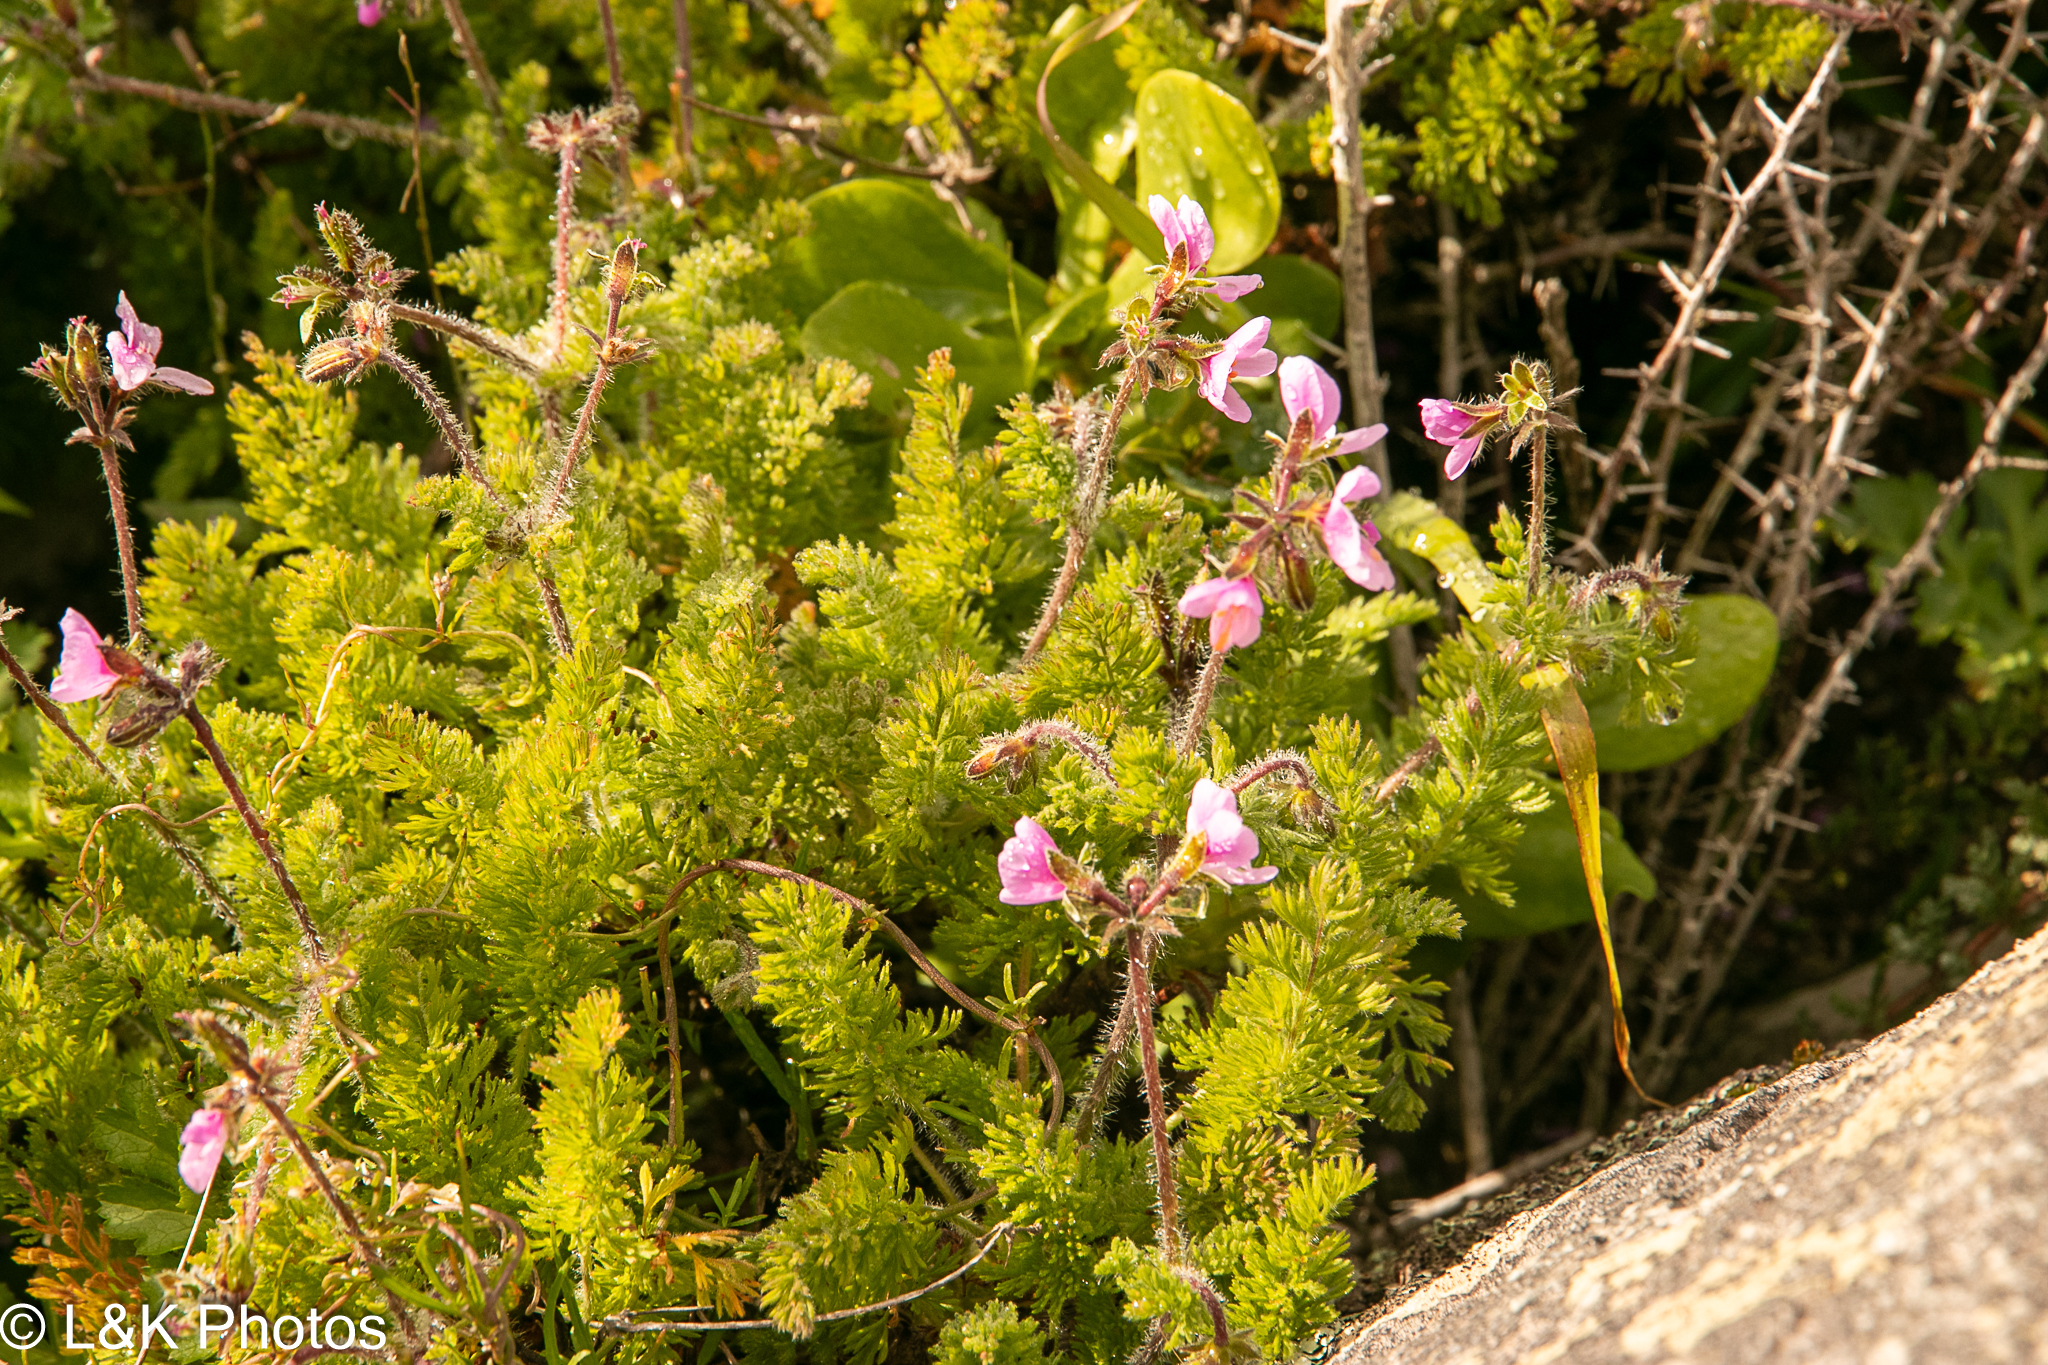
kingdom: Plantae
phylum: Tracheophyta
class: Magnoliopsida
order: Geraniales
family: Geraniaceae
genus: Pelargonium
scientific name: Pelargonium hirtum
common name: Fine-leaf pelargonium
